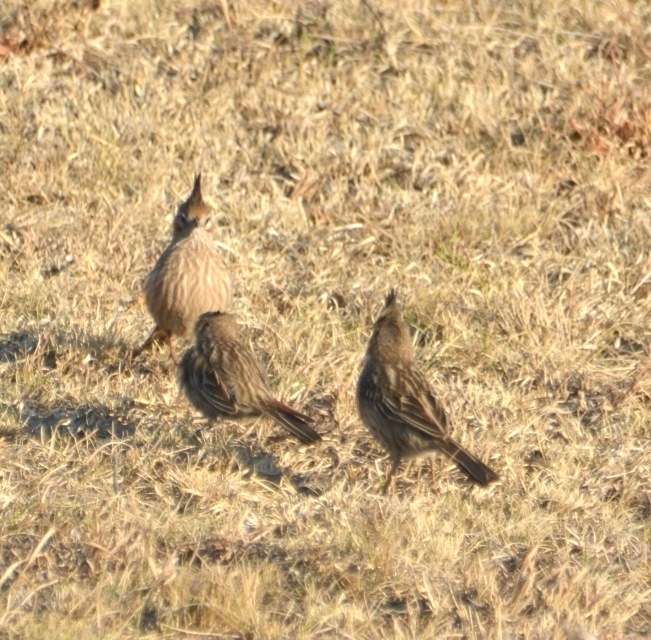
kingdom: Animalia
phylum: Chordata
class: Aves
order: Passeriformes
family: Furnariidae
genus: Coryphistera
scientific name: Coryphistera alaudina
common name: Lark-like brushrunner
